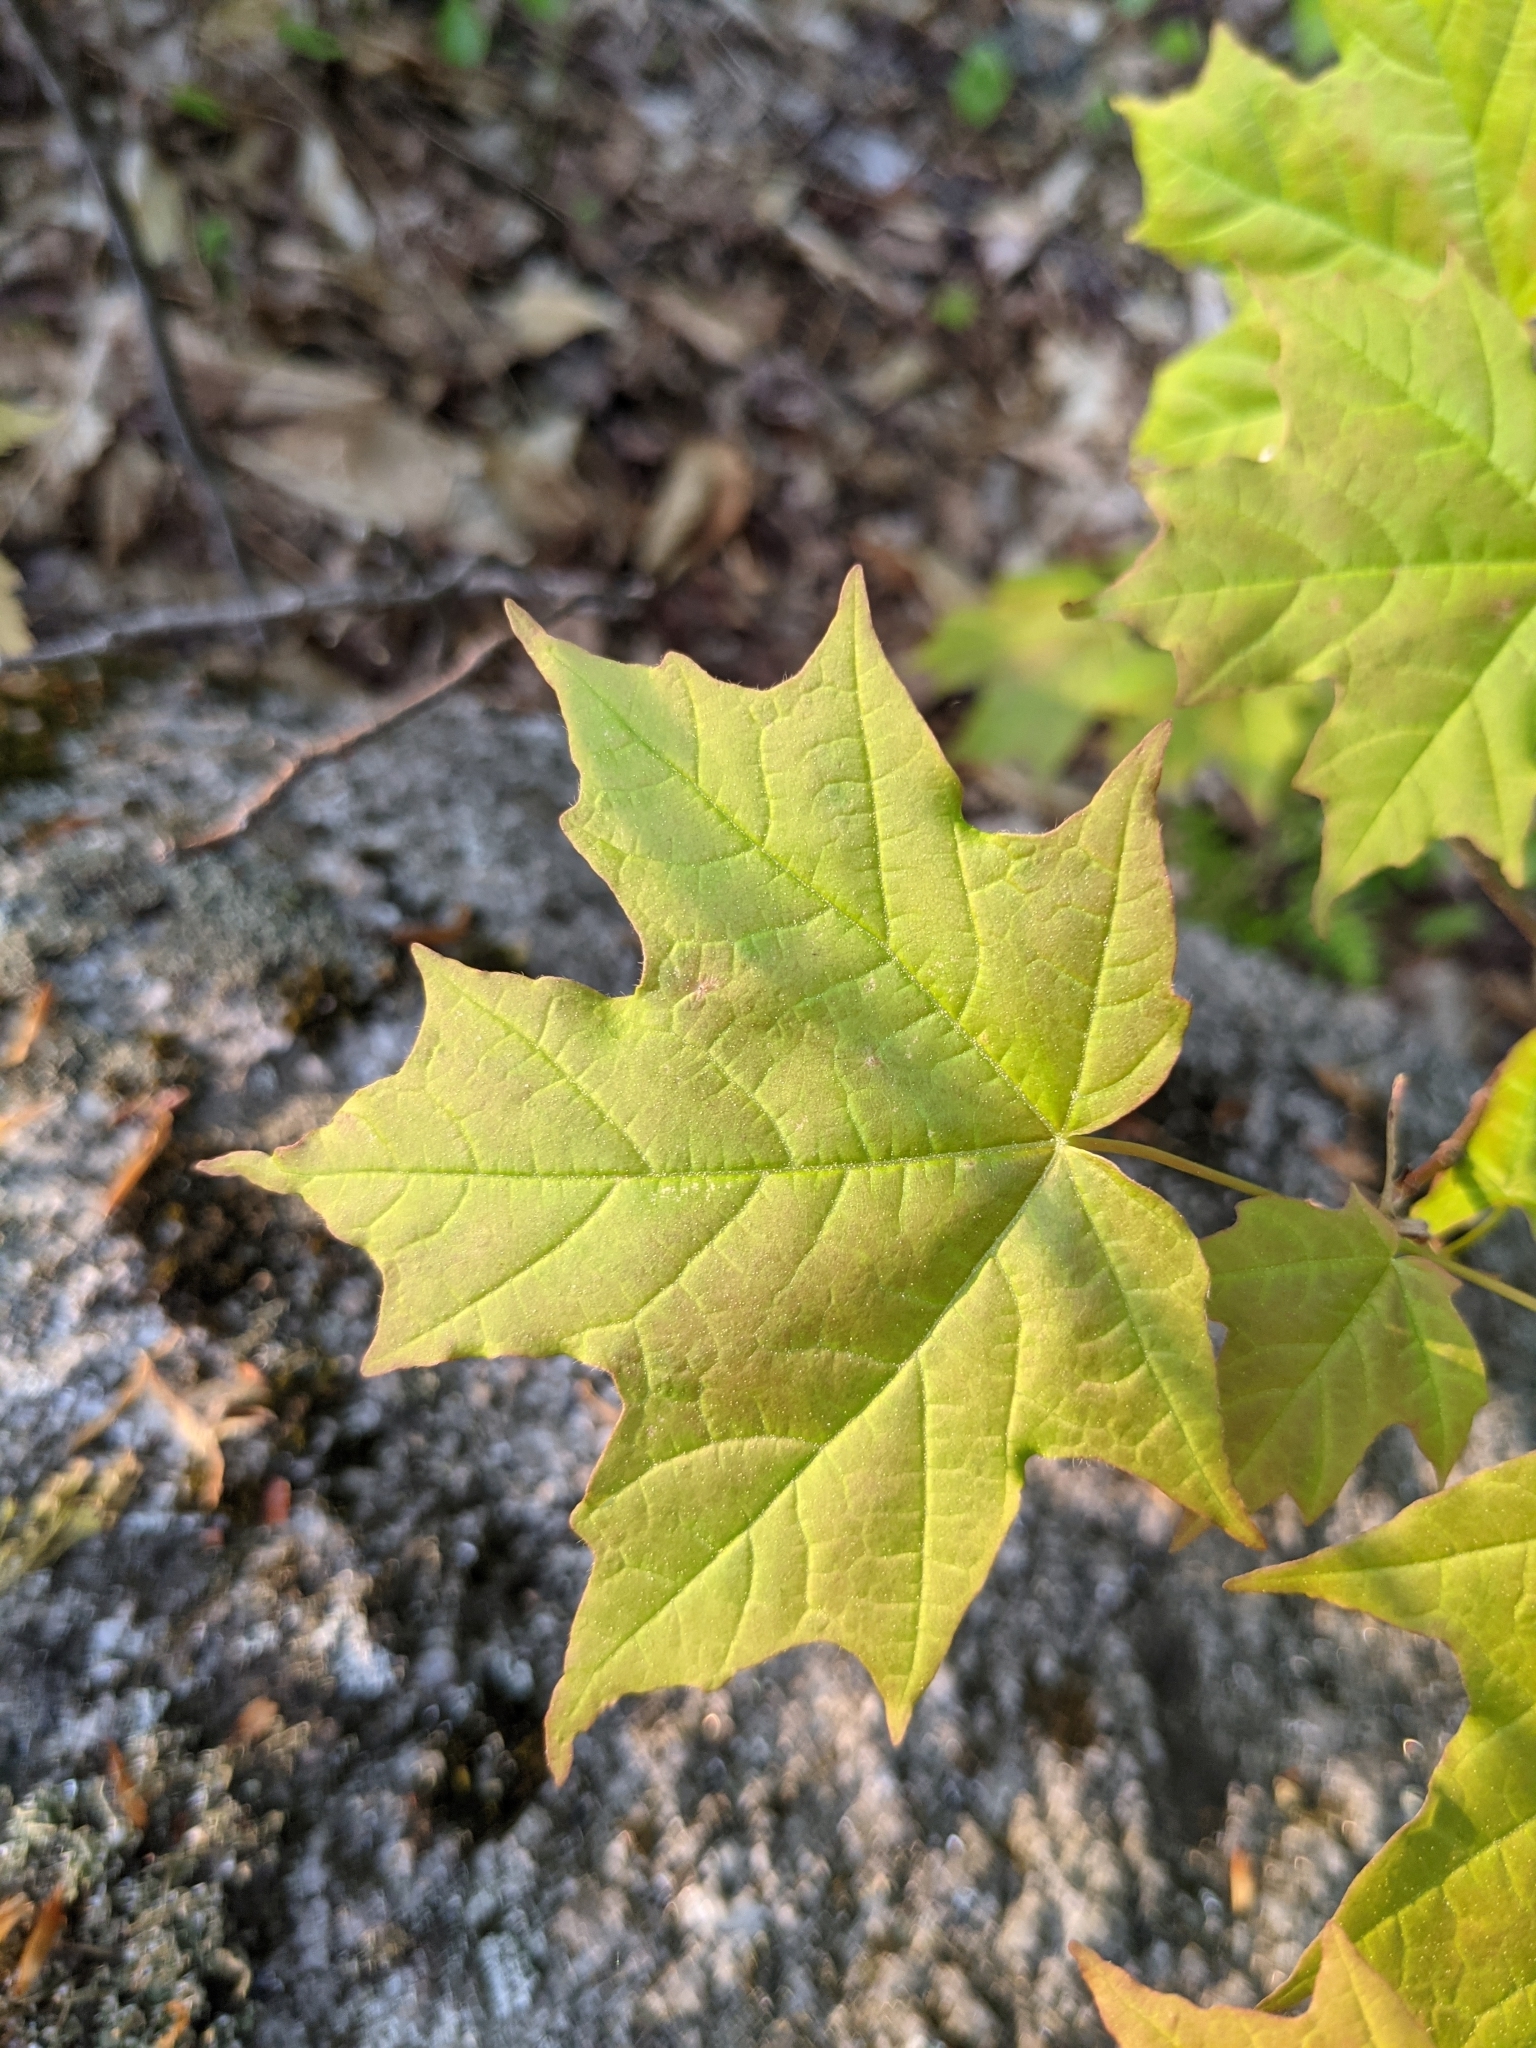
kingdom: Plantae
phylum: Tracheophyta
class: Magnoliopsida
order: Sapindales
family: Sapindaceae
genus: Acer
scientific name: Acer saccharum
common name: Sugar maple
